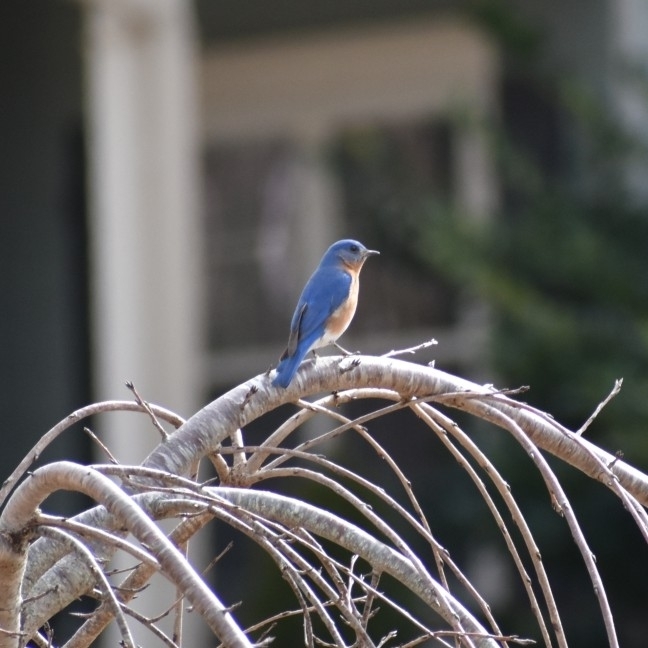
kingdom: Animalia
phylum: Chordata
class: Aves
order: Passeriformes
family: Turdidae
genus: Sialia
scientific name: Sialia sialis
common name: Eastern bluebird
